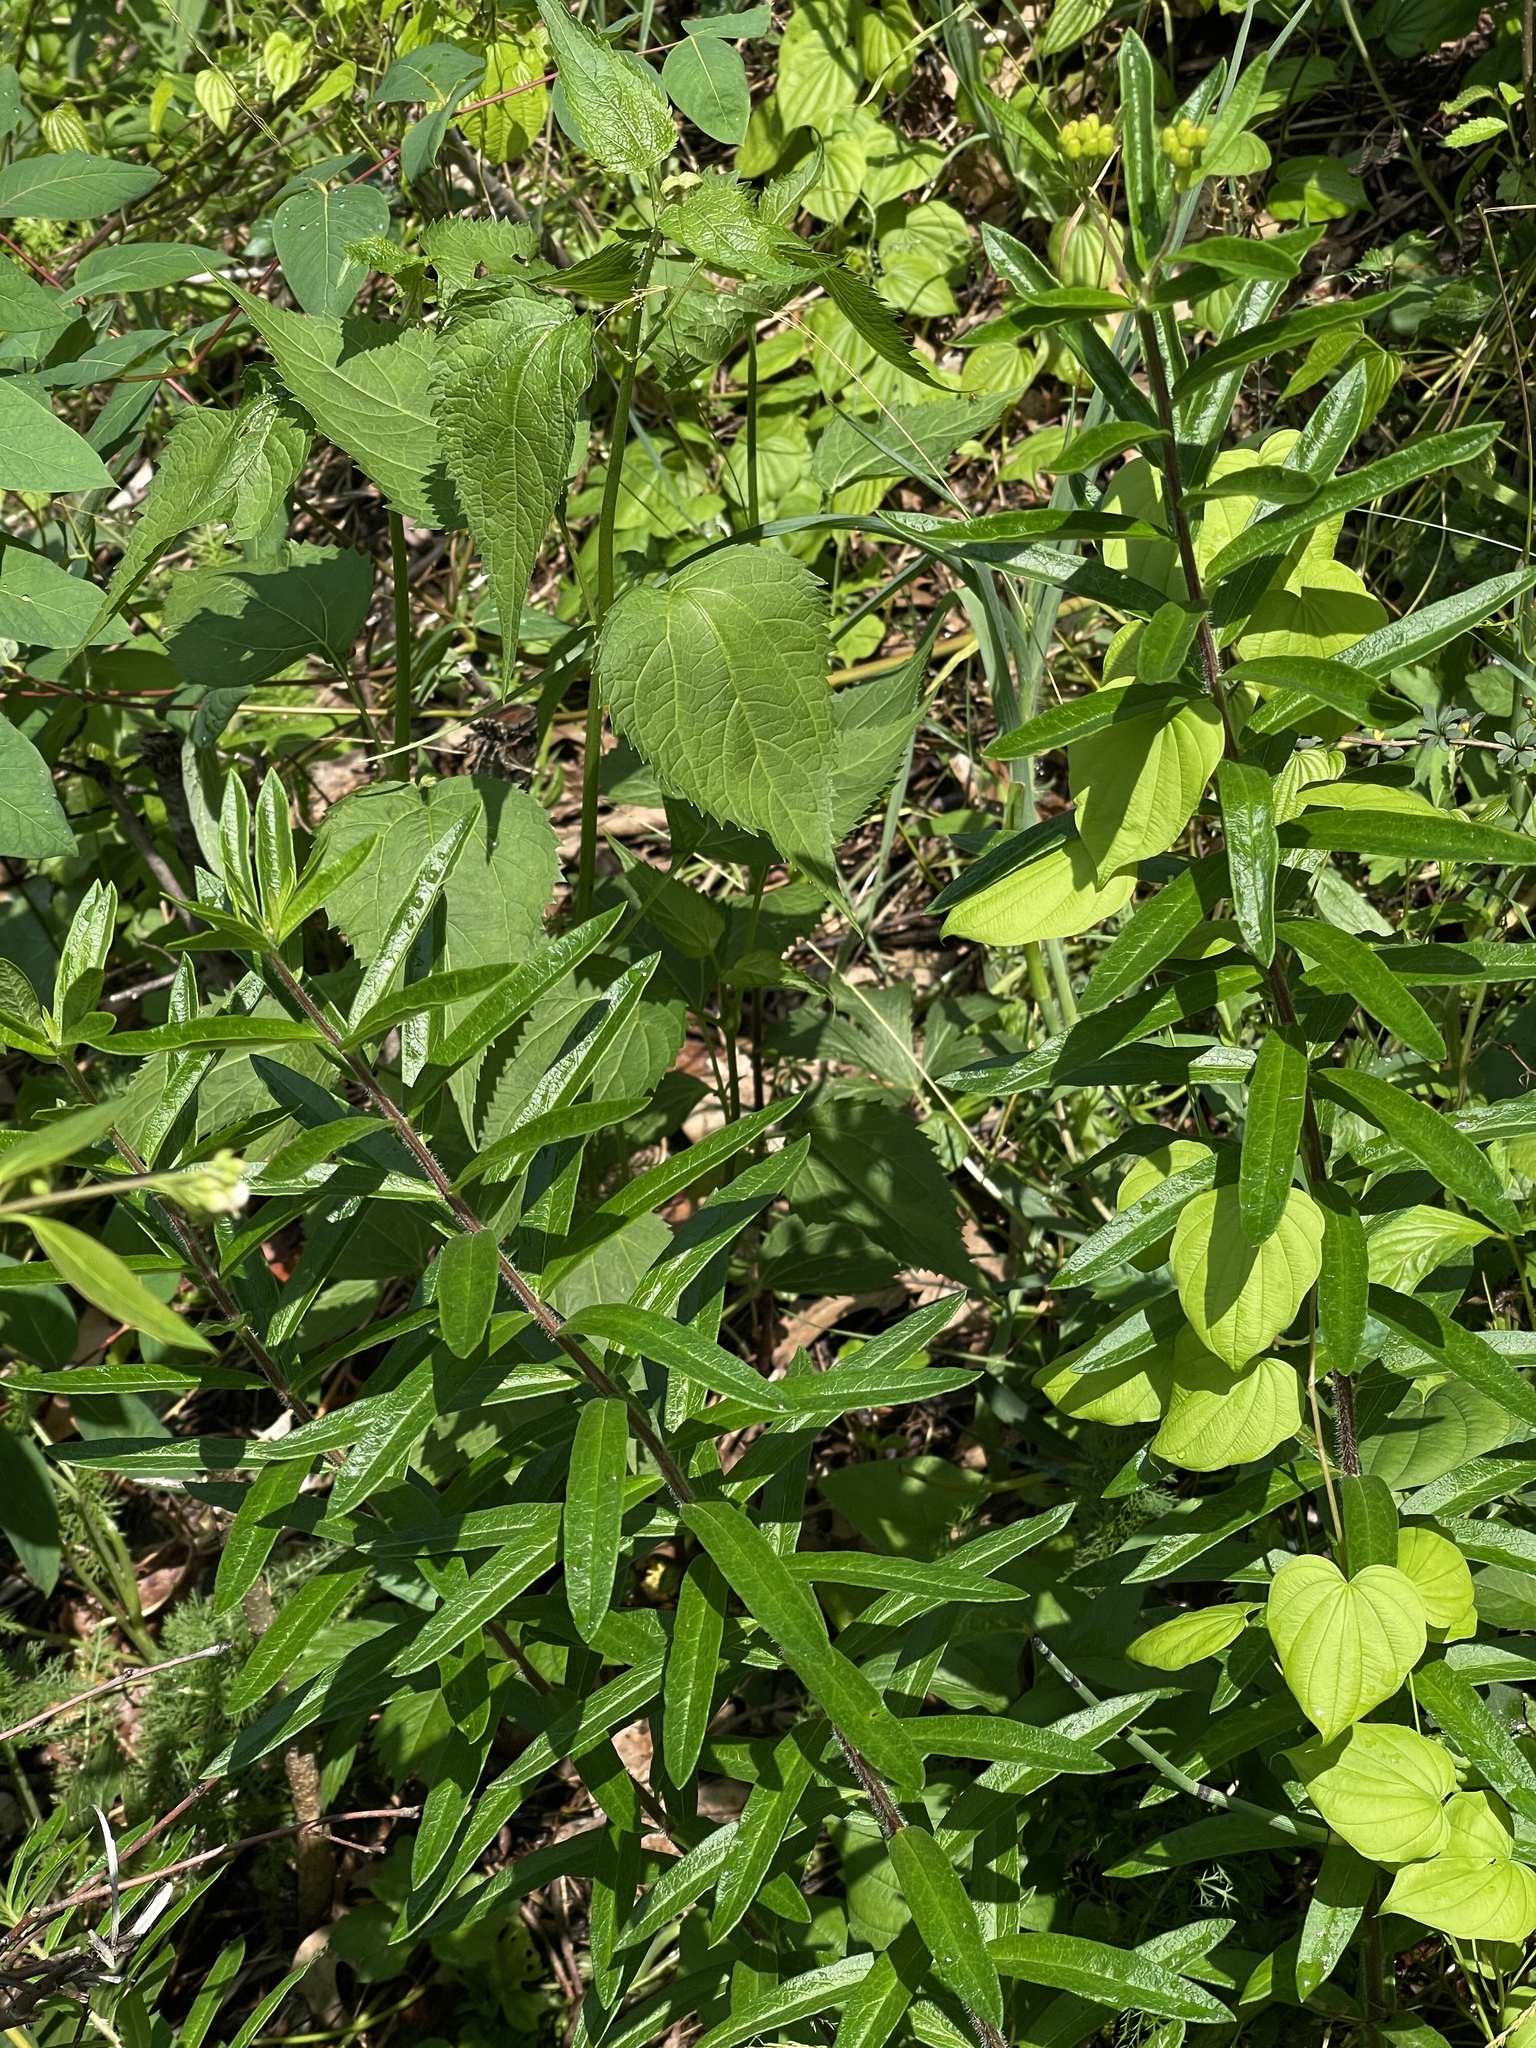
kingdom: Plantae
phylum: Tracheophyta
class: Magnoliopsida
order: Gentianales
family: Apocynaceae
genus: Asclepias
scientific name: Asclepias tuberosa
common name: Butterfly milkweed
